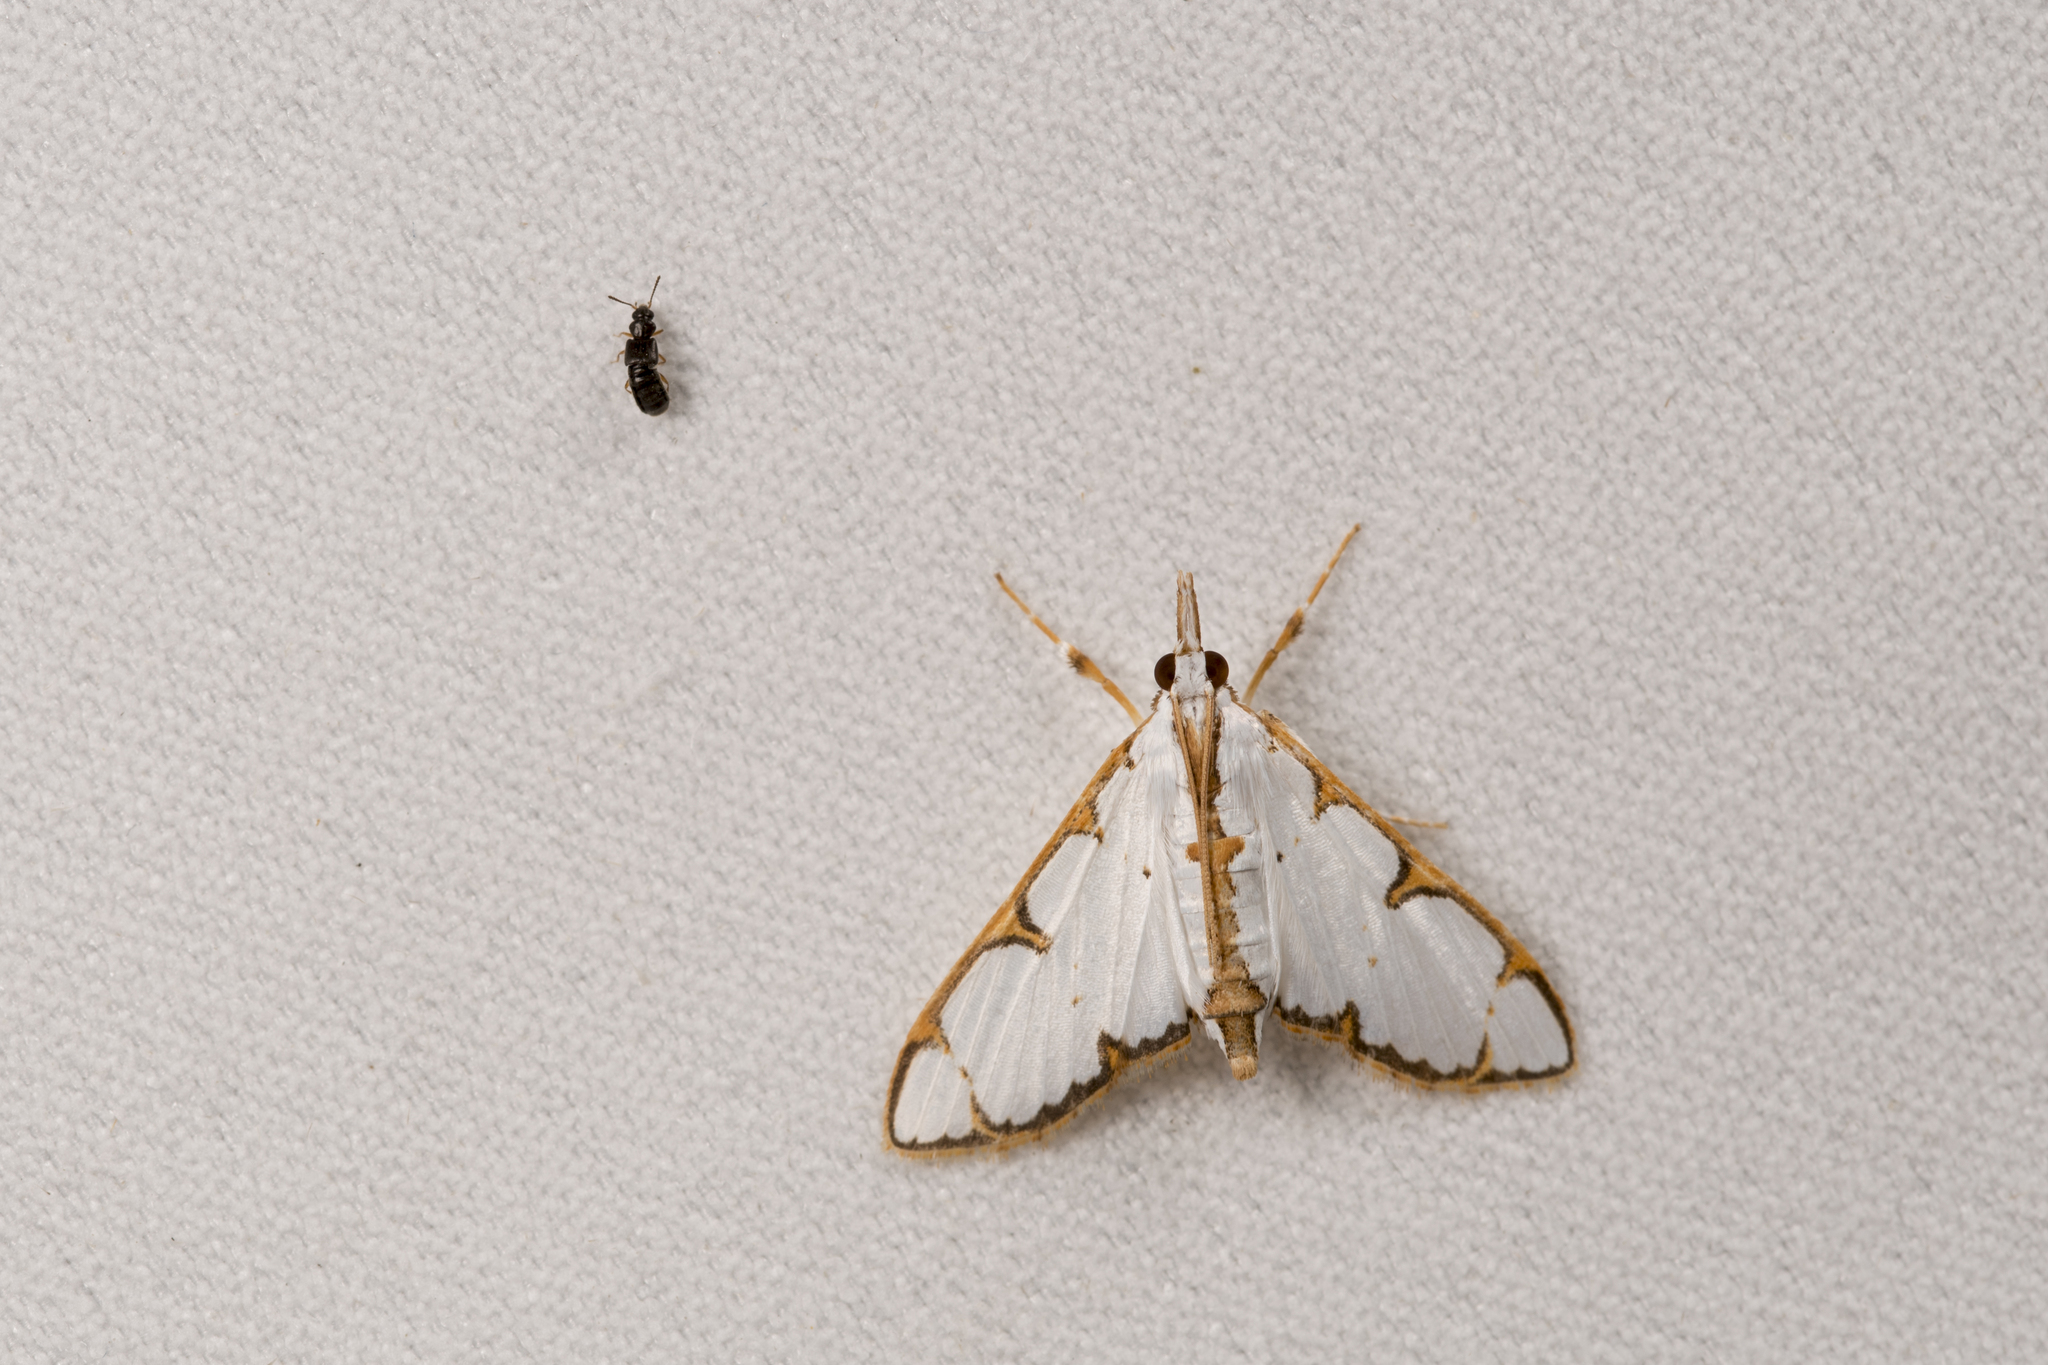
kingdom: Animalia
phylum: Arthropoda
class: Insecta
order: Lepidoptera
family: Crambidae
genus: Cirrhochrista
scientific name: Cirrhochrista spinuella
